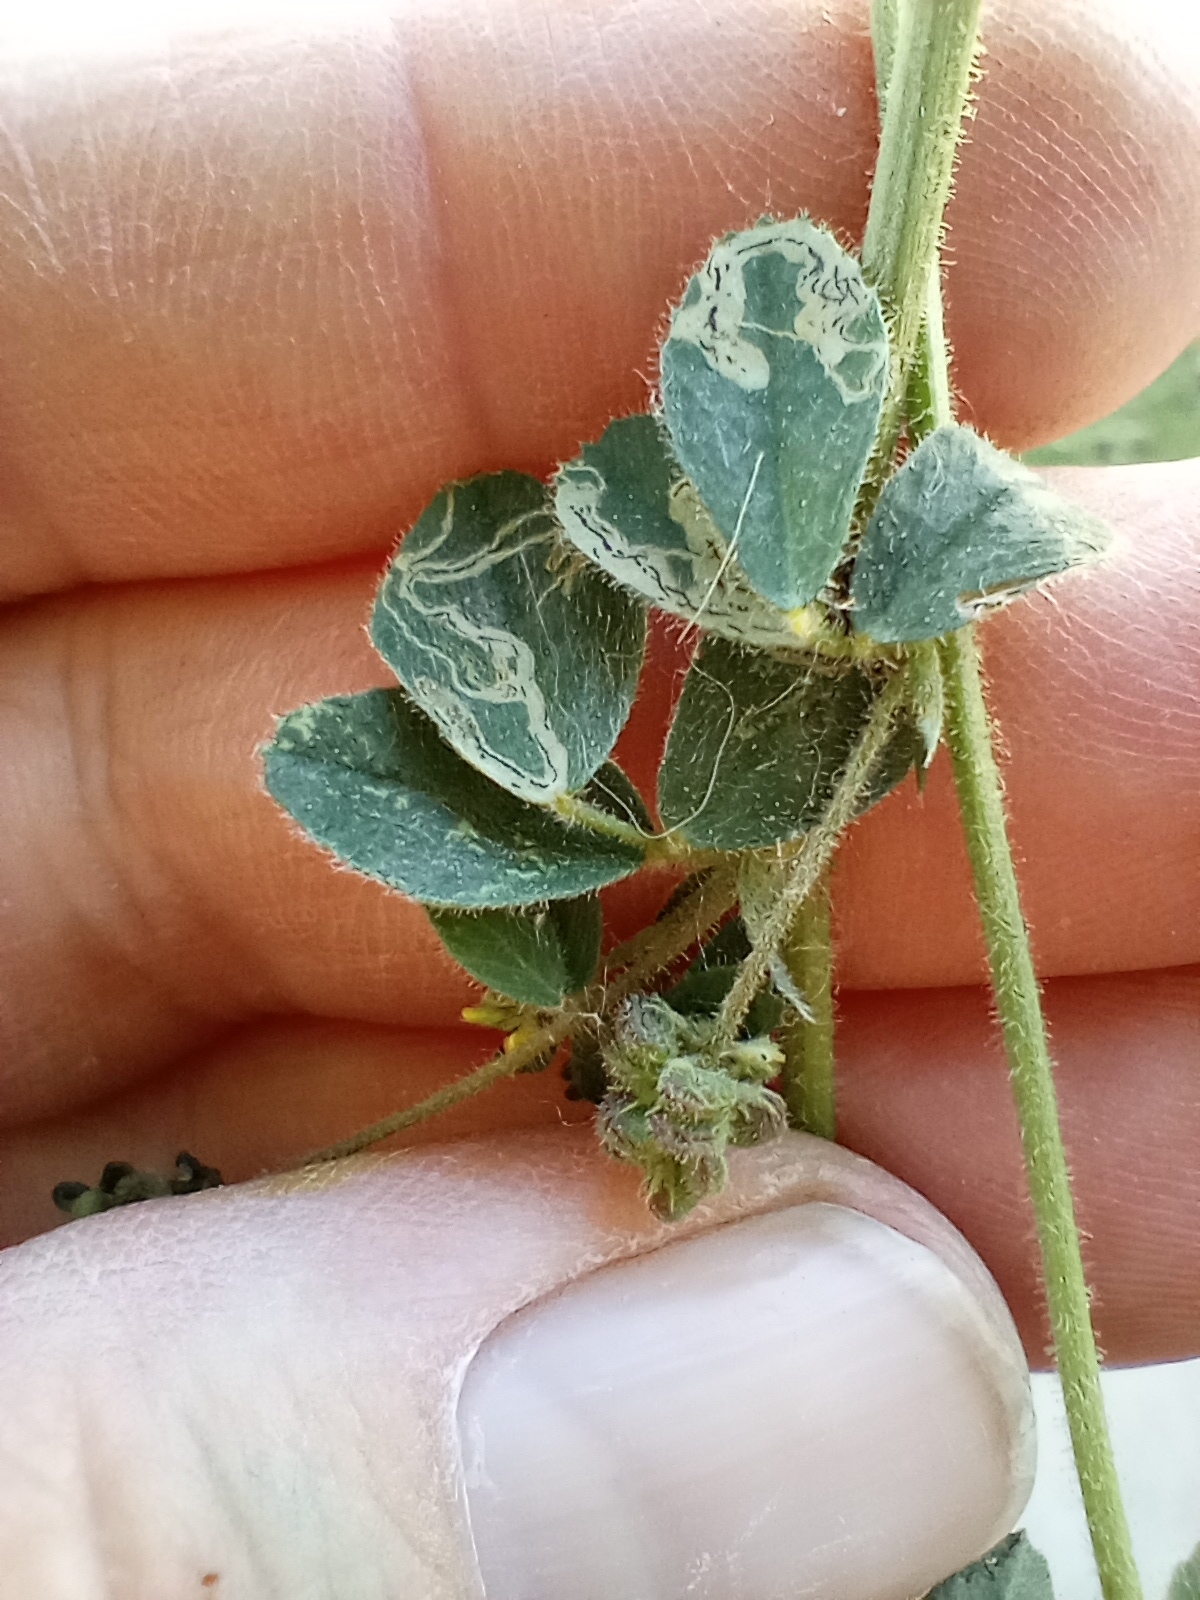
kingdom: Plantae
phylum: Tracheophyta
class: Magnoliopsida
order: Fabales
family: Fabaceae
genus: Medicago
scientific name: Medicago lupulina
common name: Black medick
